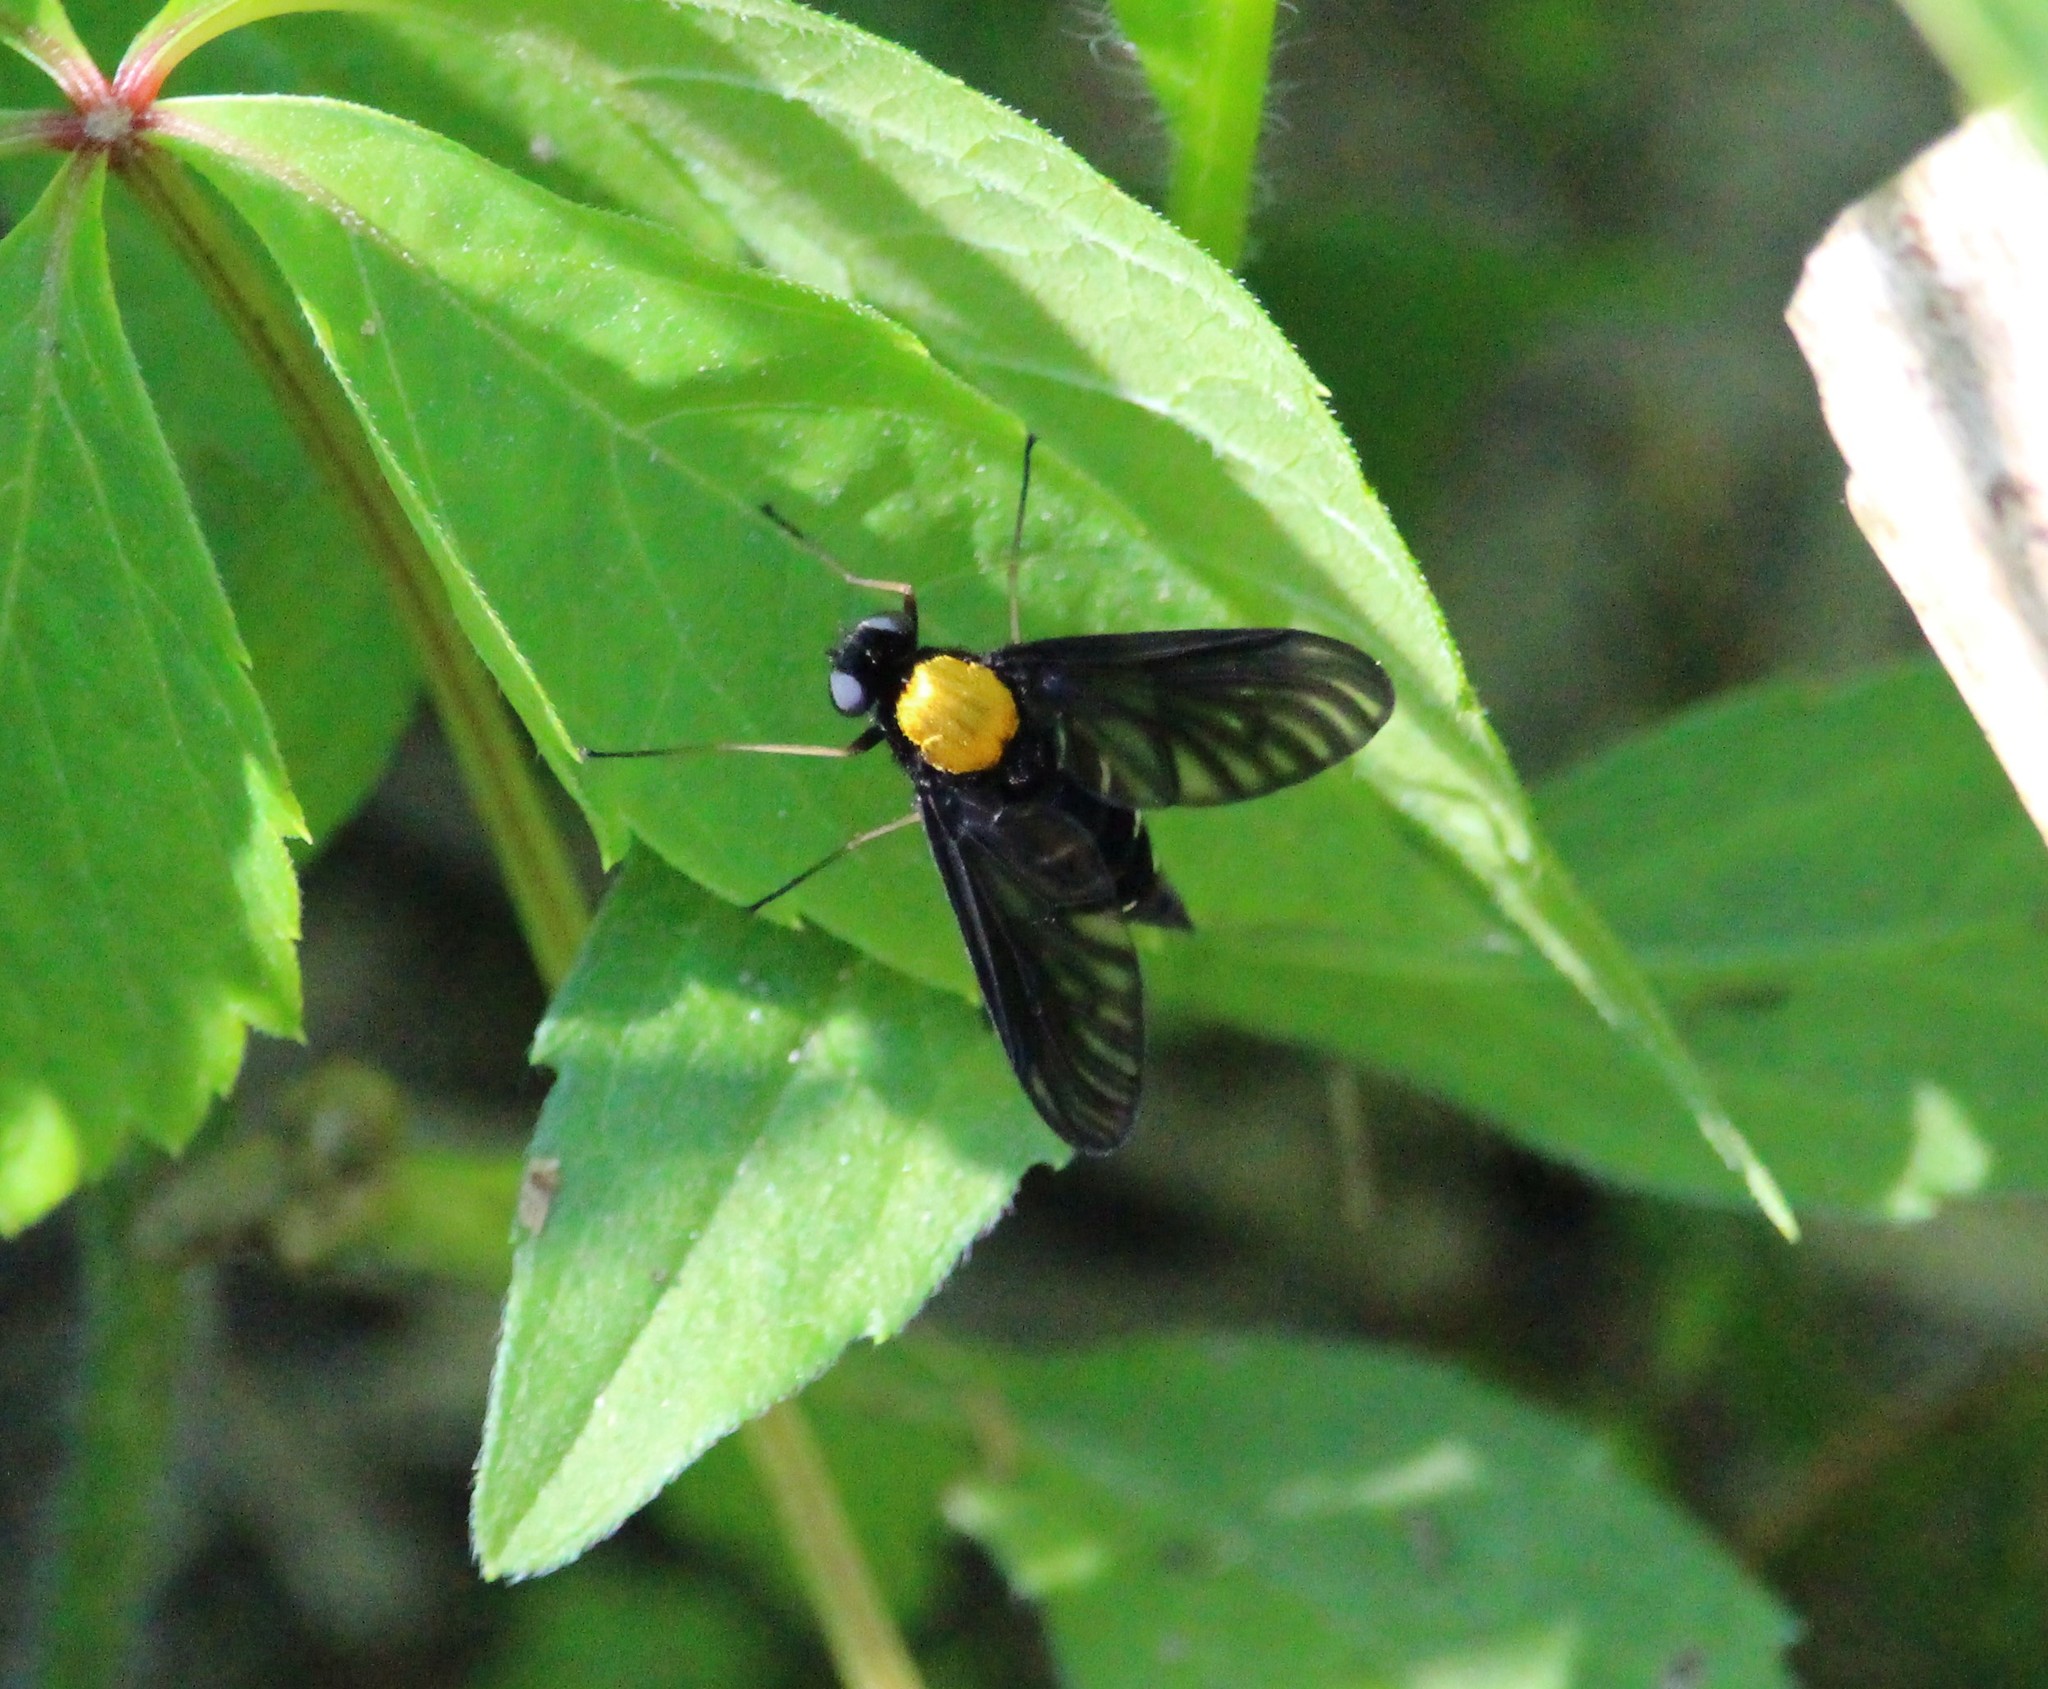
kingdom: Animalia
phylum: Arthropoda
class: Insecta
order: Diptera
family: Rhagionidae
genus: Chrysopilus
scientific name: Chrysopilus thoracicus
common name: Golden-backed snipe fly
